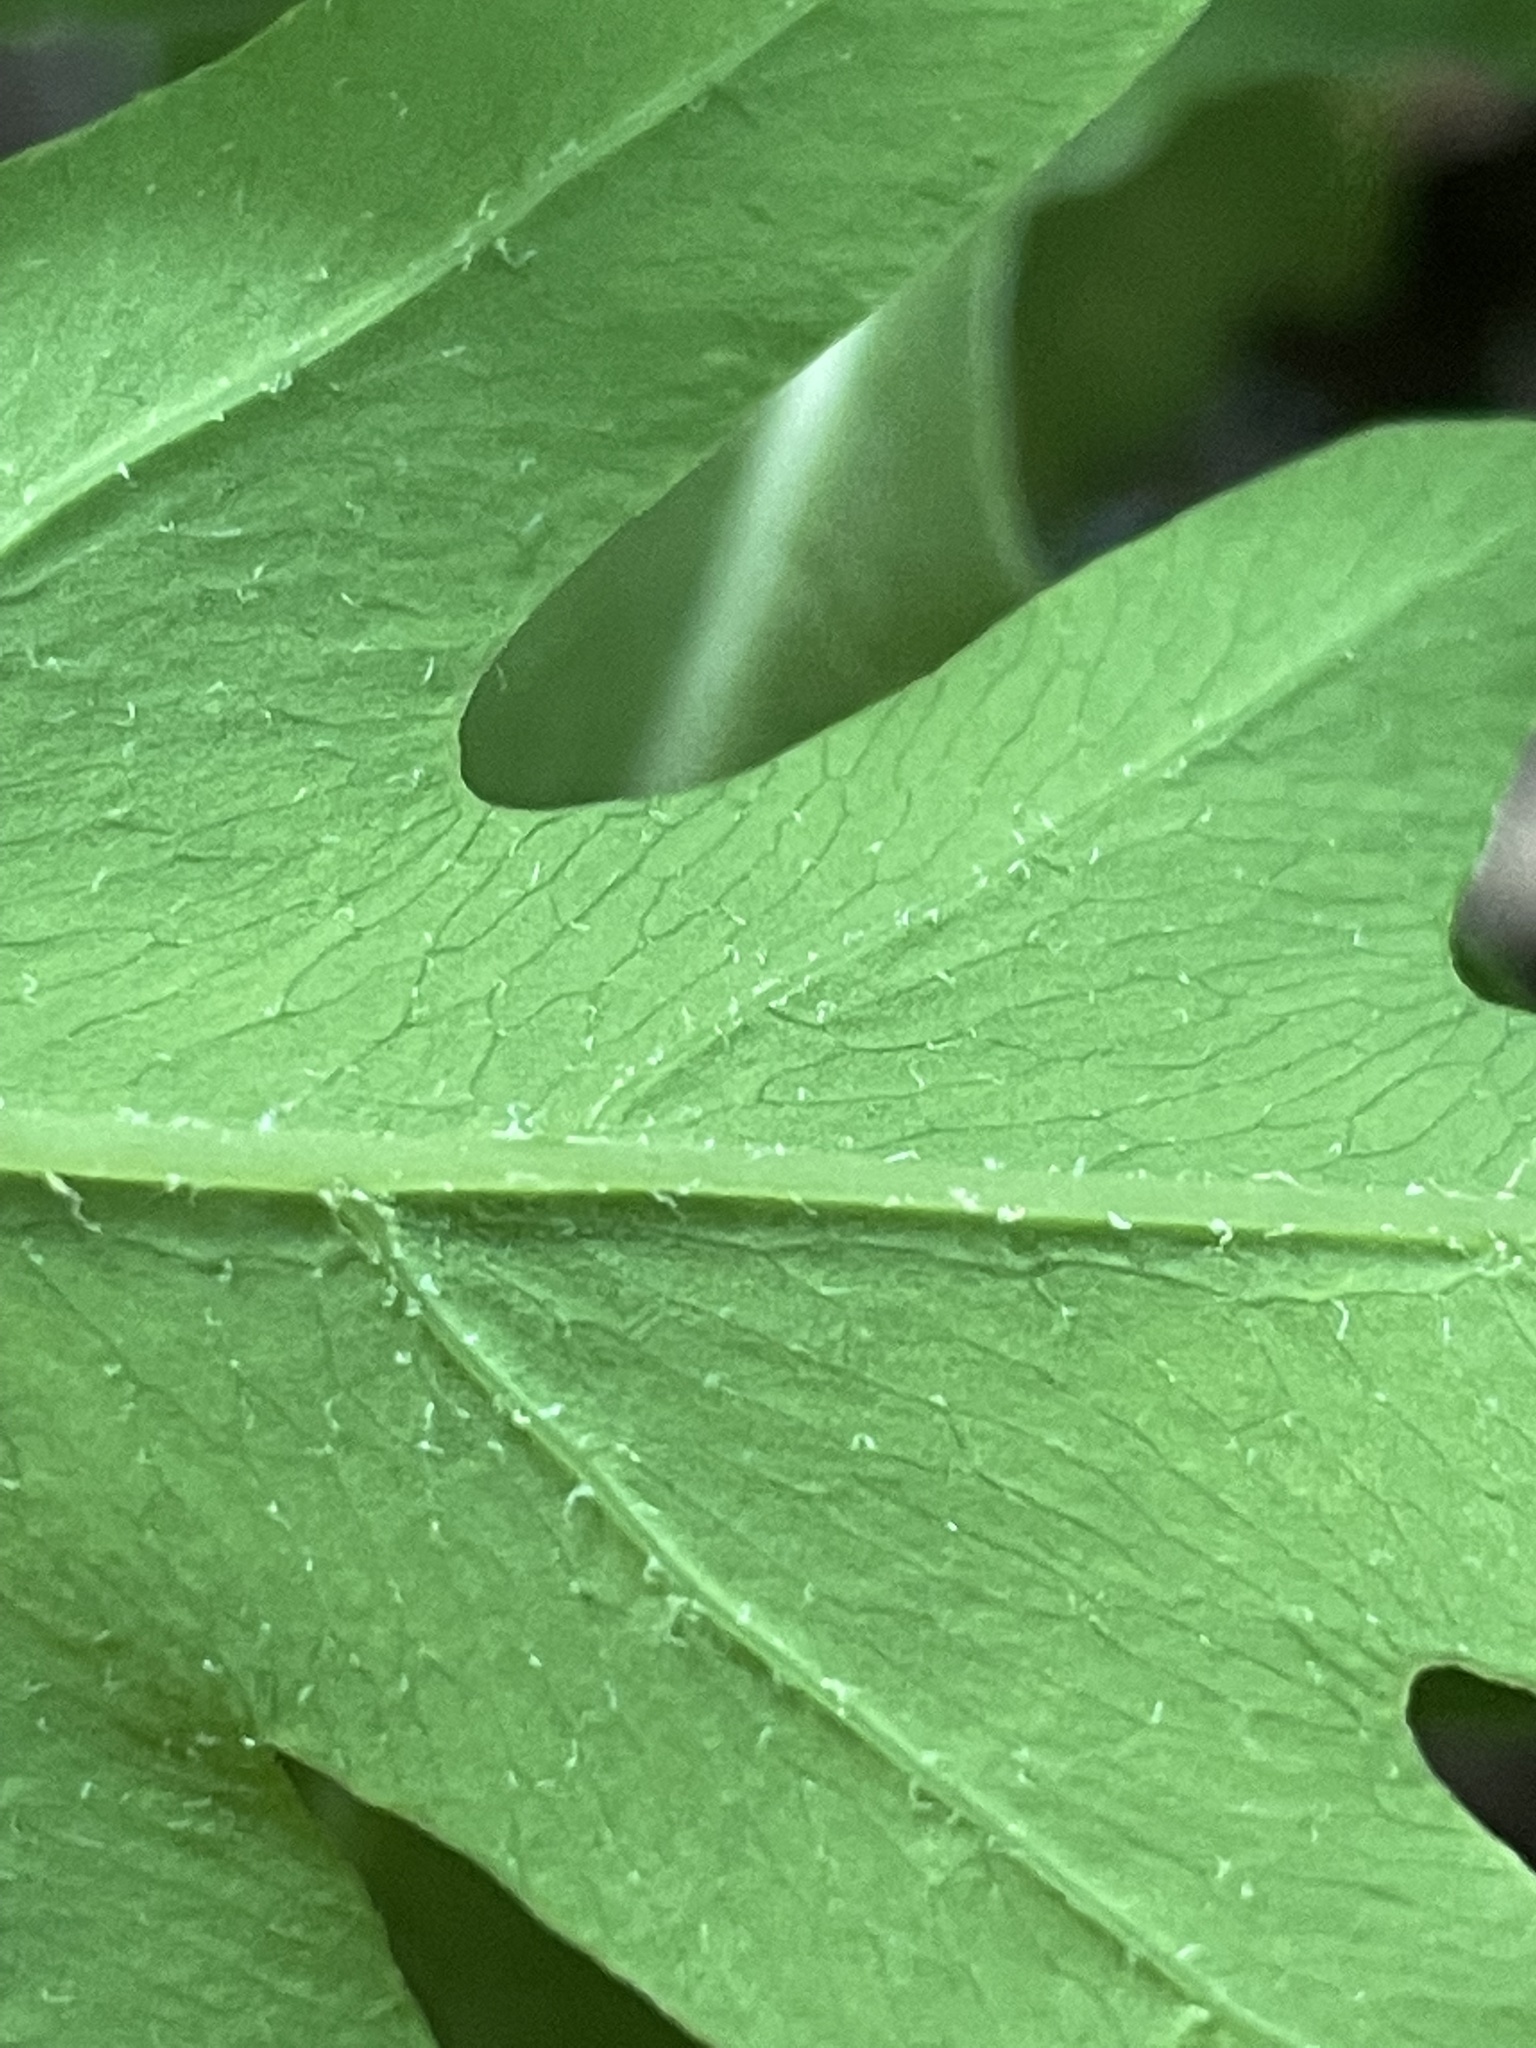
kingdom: Plantae
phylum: Tracheophyta
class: Polypodiopsida
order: Polypodiales
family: Onocleaceae
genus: Onoclea
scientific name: Onoclea sensibilis
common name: Sensitive fern
